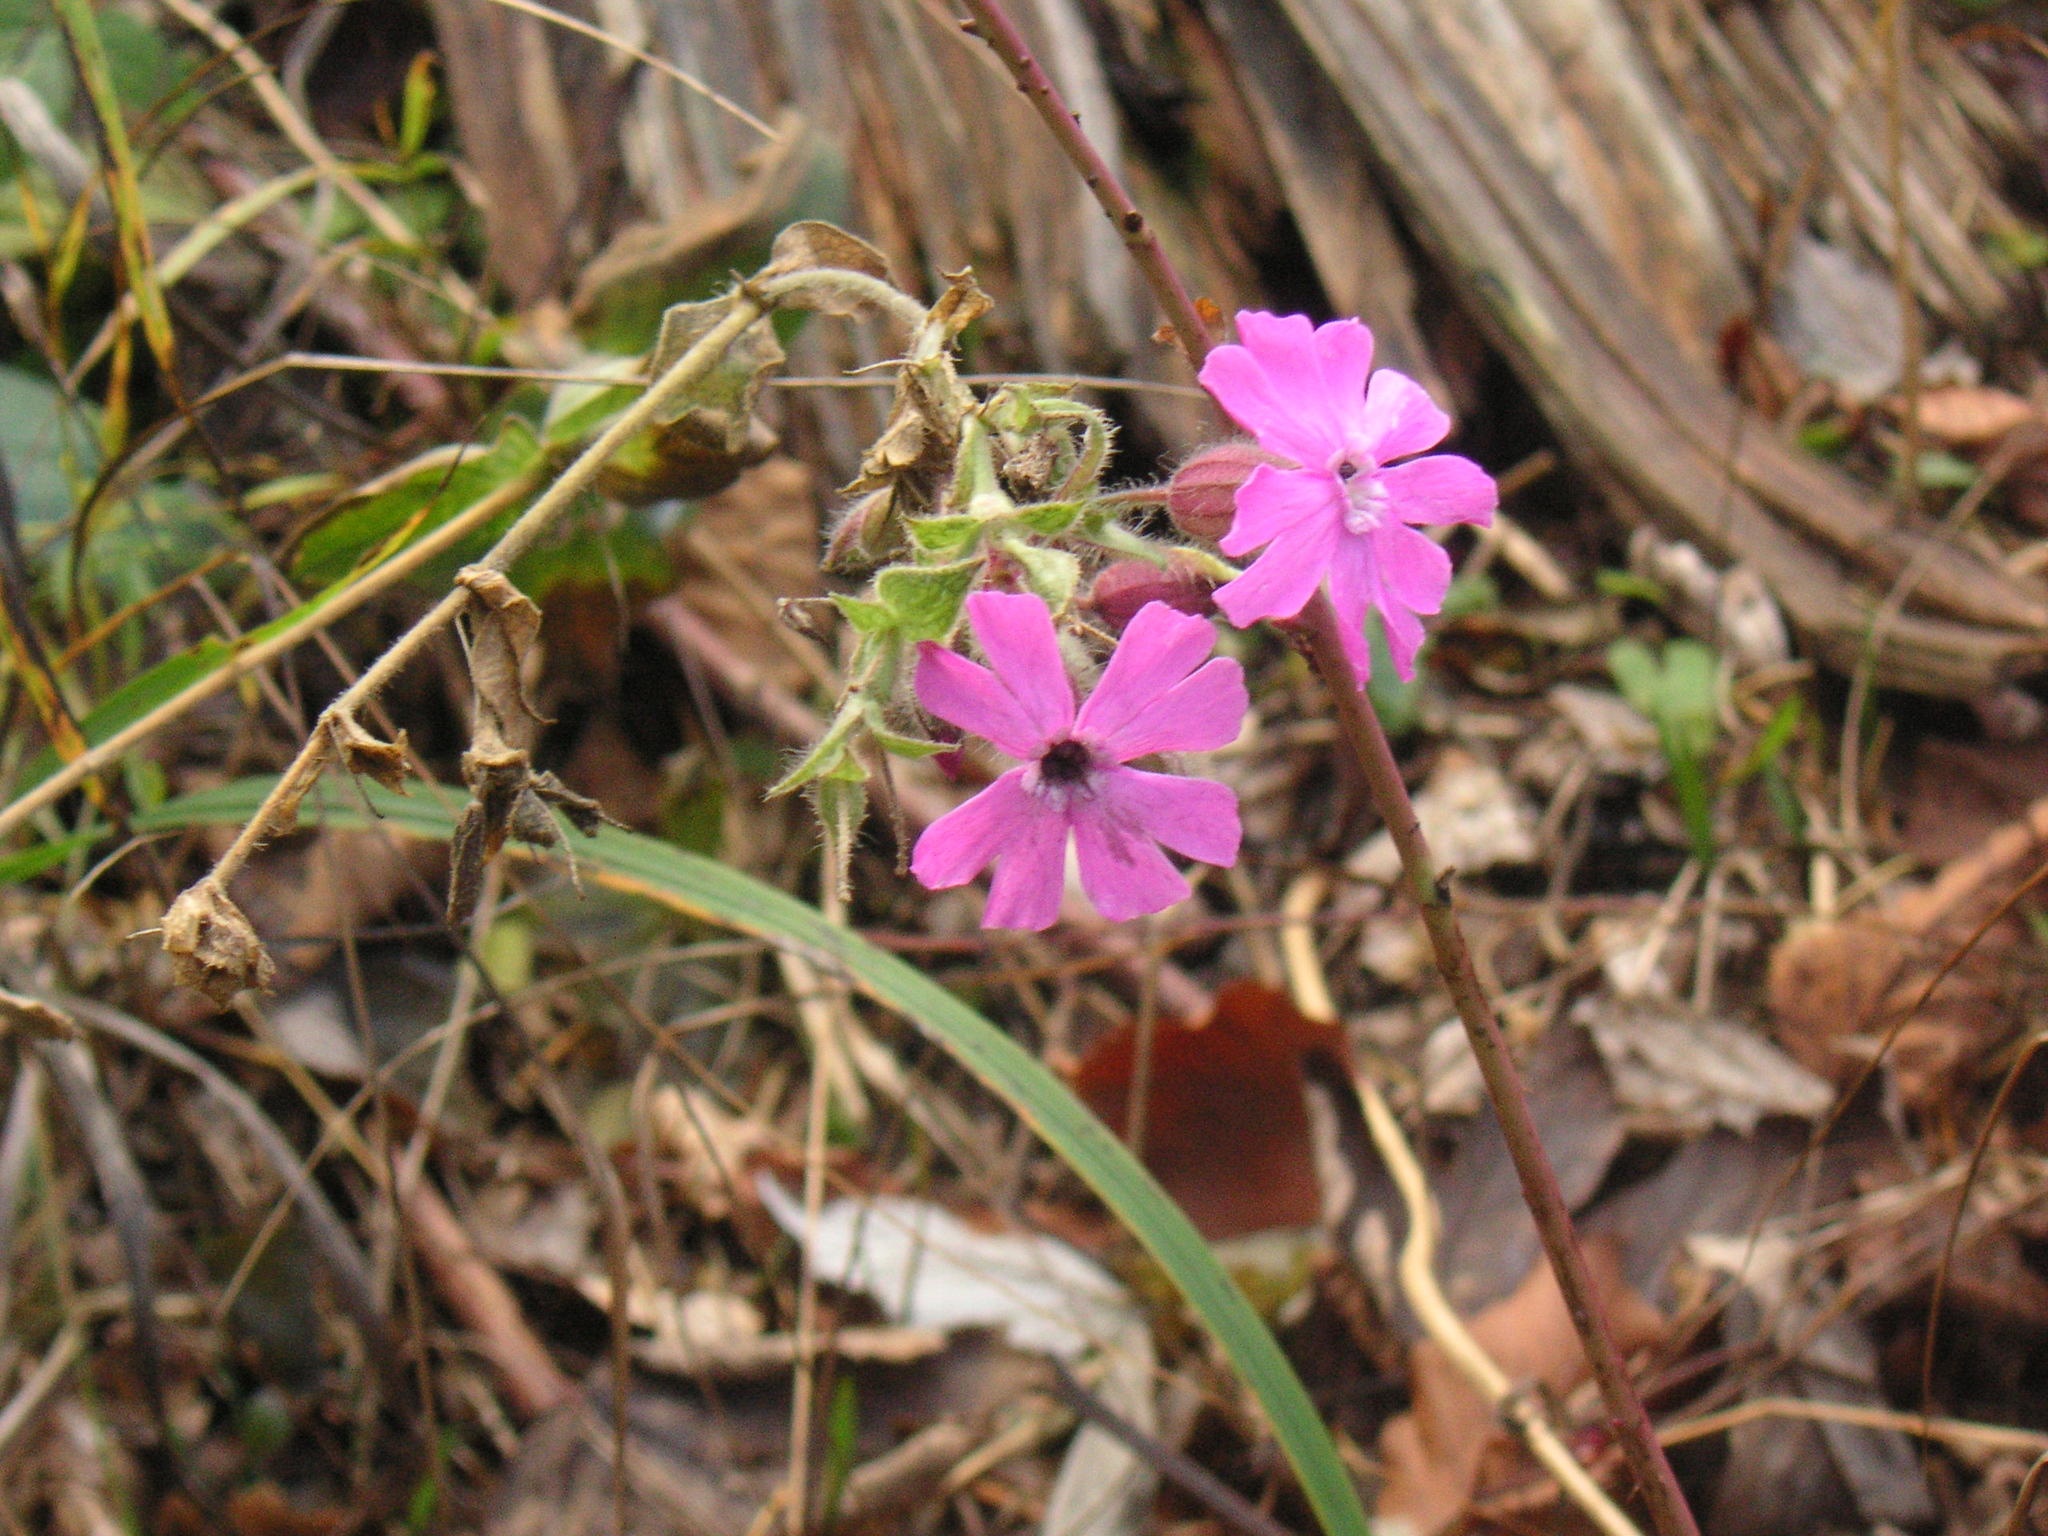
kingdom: Plantae
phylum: Tracheophyta
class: Magnoliopsida
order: Caryophyllales
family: Caryophyllaceae
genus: Silene
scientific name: Silene dioica
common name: Red campion
